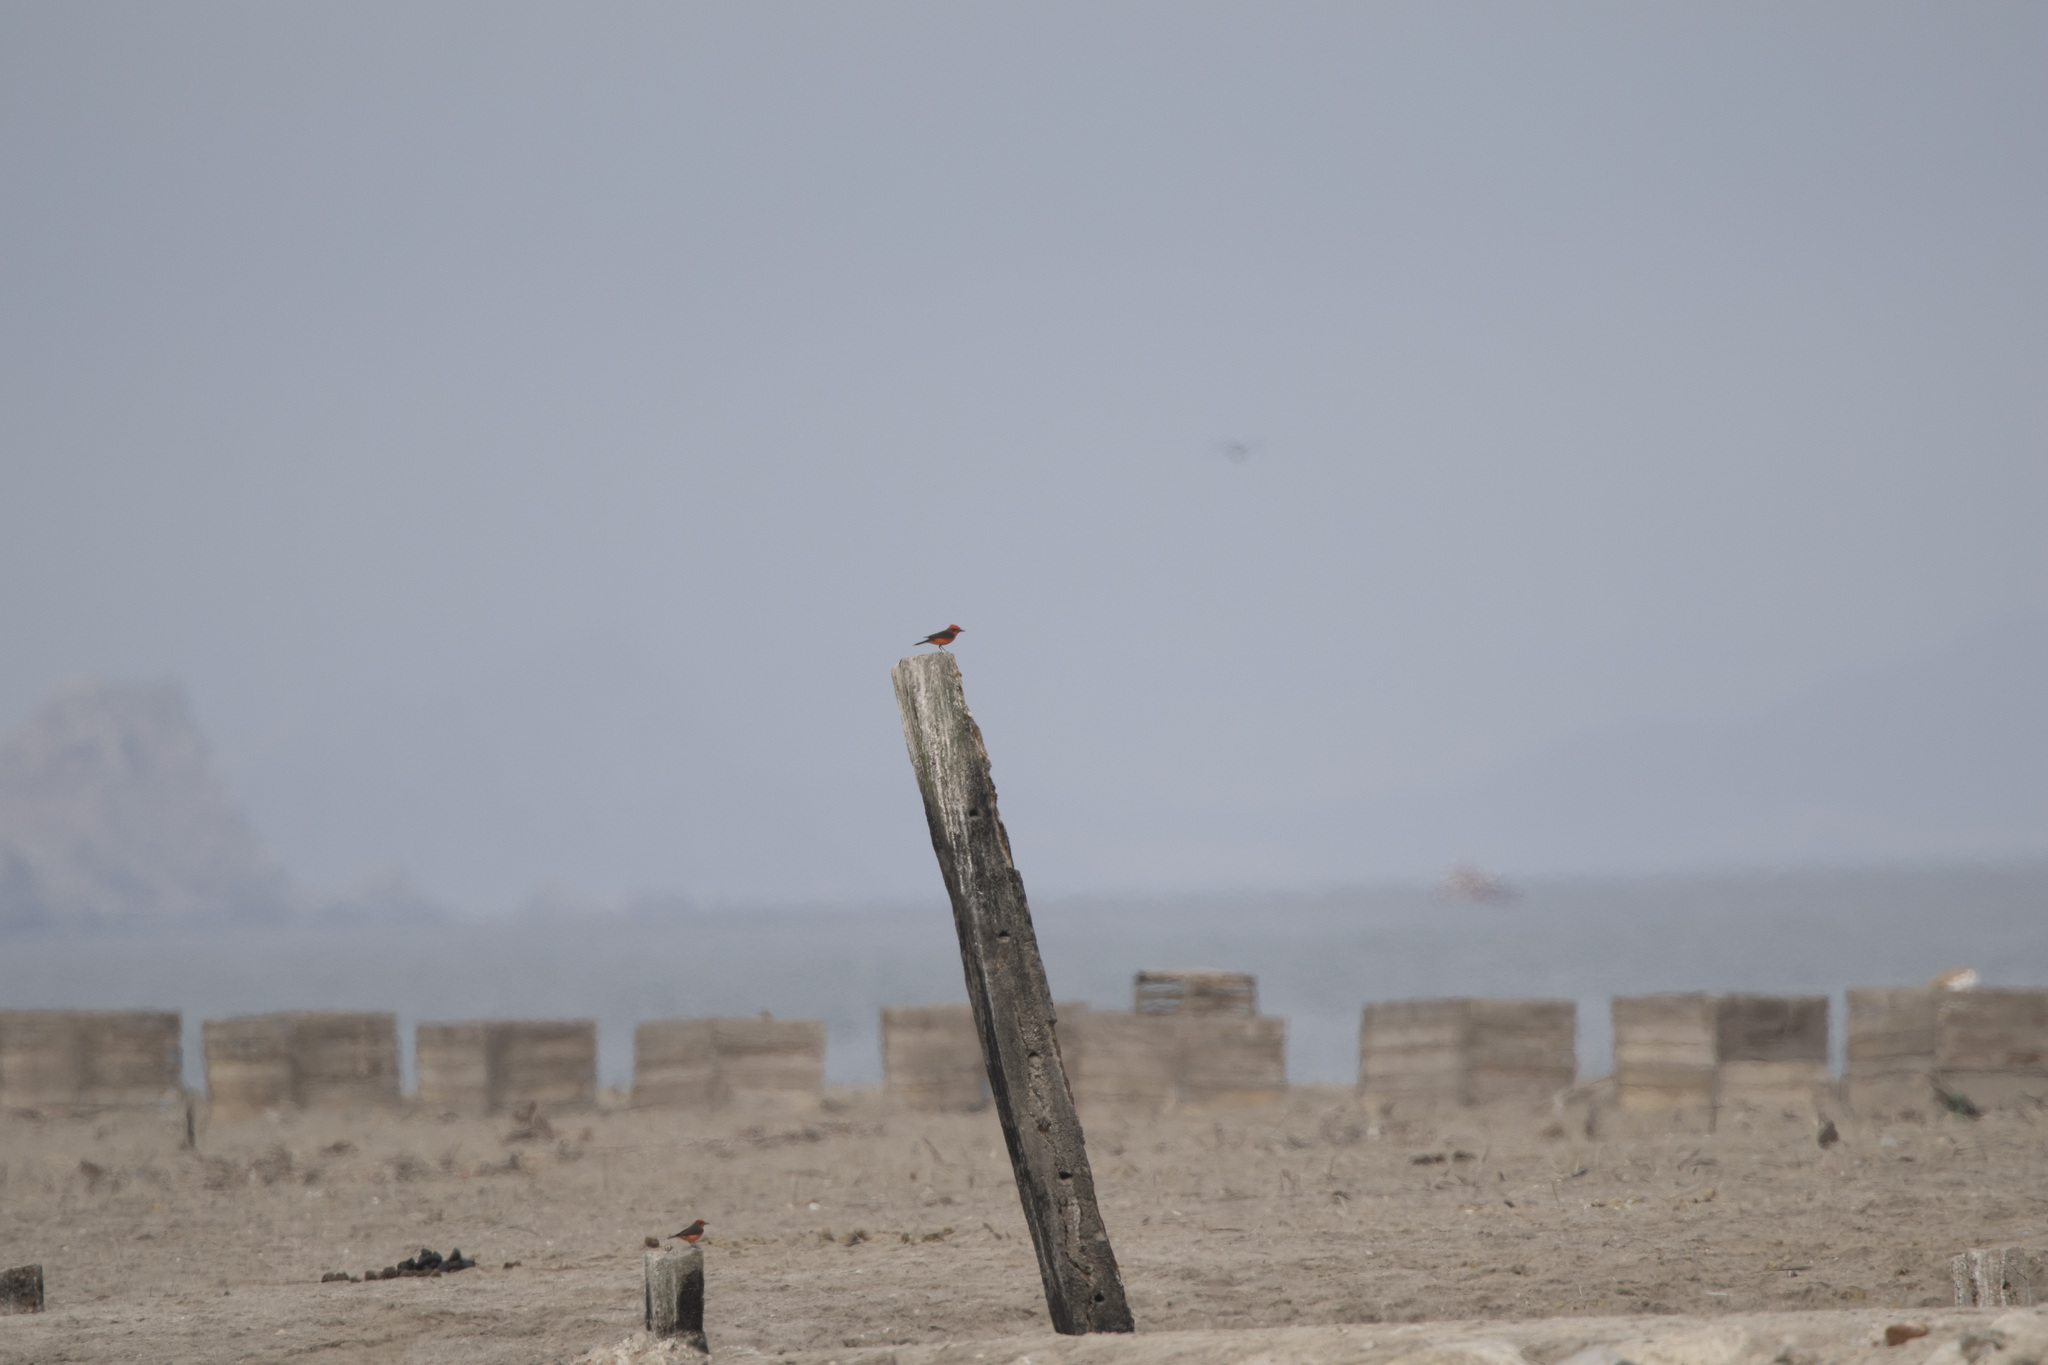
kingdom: Animalia
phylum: Chordata
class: Aves
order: Passeriformes
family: Tyrannidae
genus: Pyrocephalus
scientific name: Pyrocephalus rubinus
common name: Vermilion flycatcher
